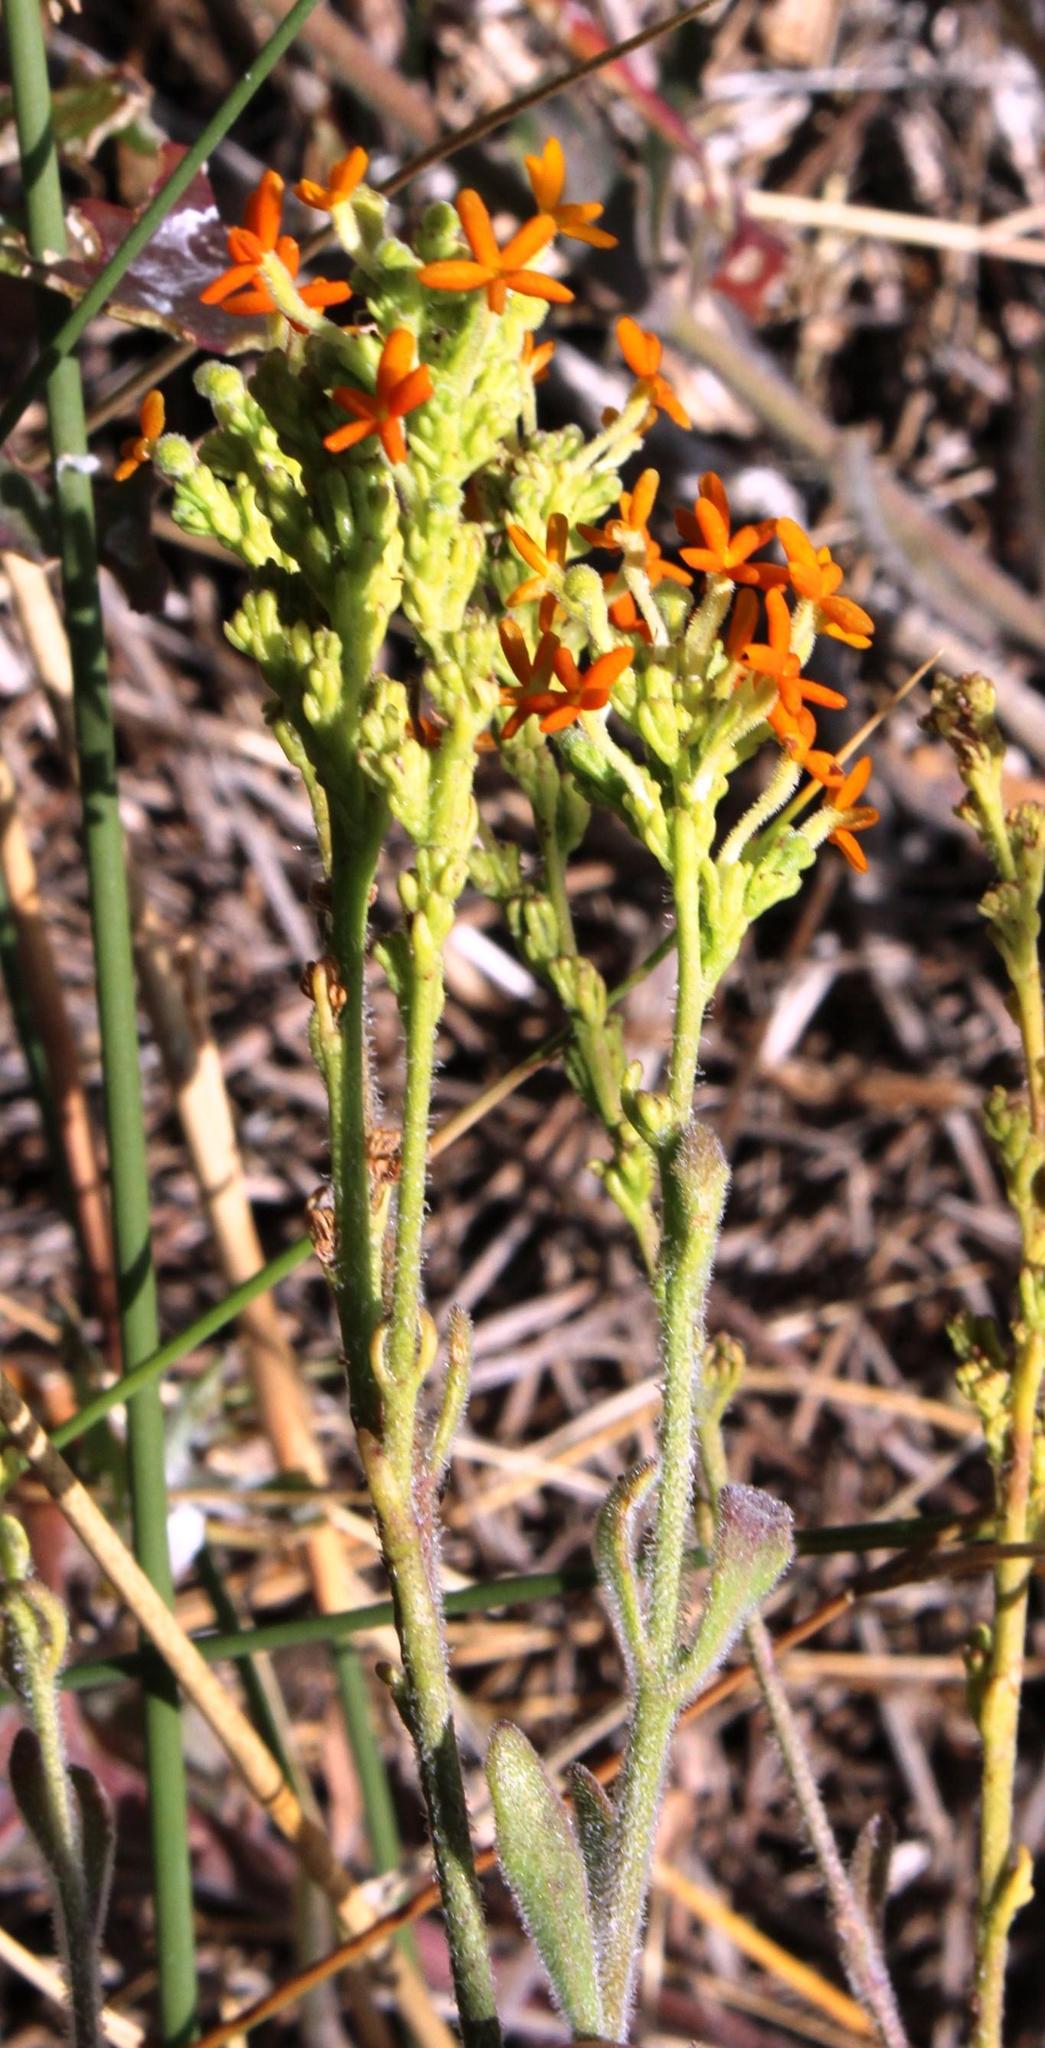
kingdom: Plantae
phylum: Tracheophyta
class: Magnoliopsida
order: Lamiales
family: Scrophulariaceae
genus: Manulea
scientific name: Manulea tomentosa
